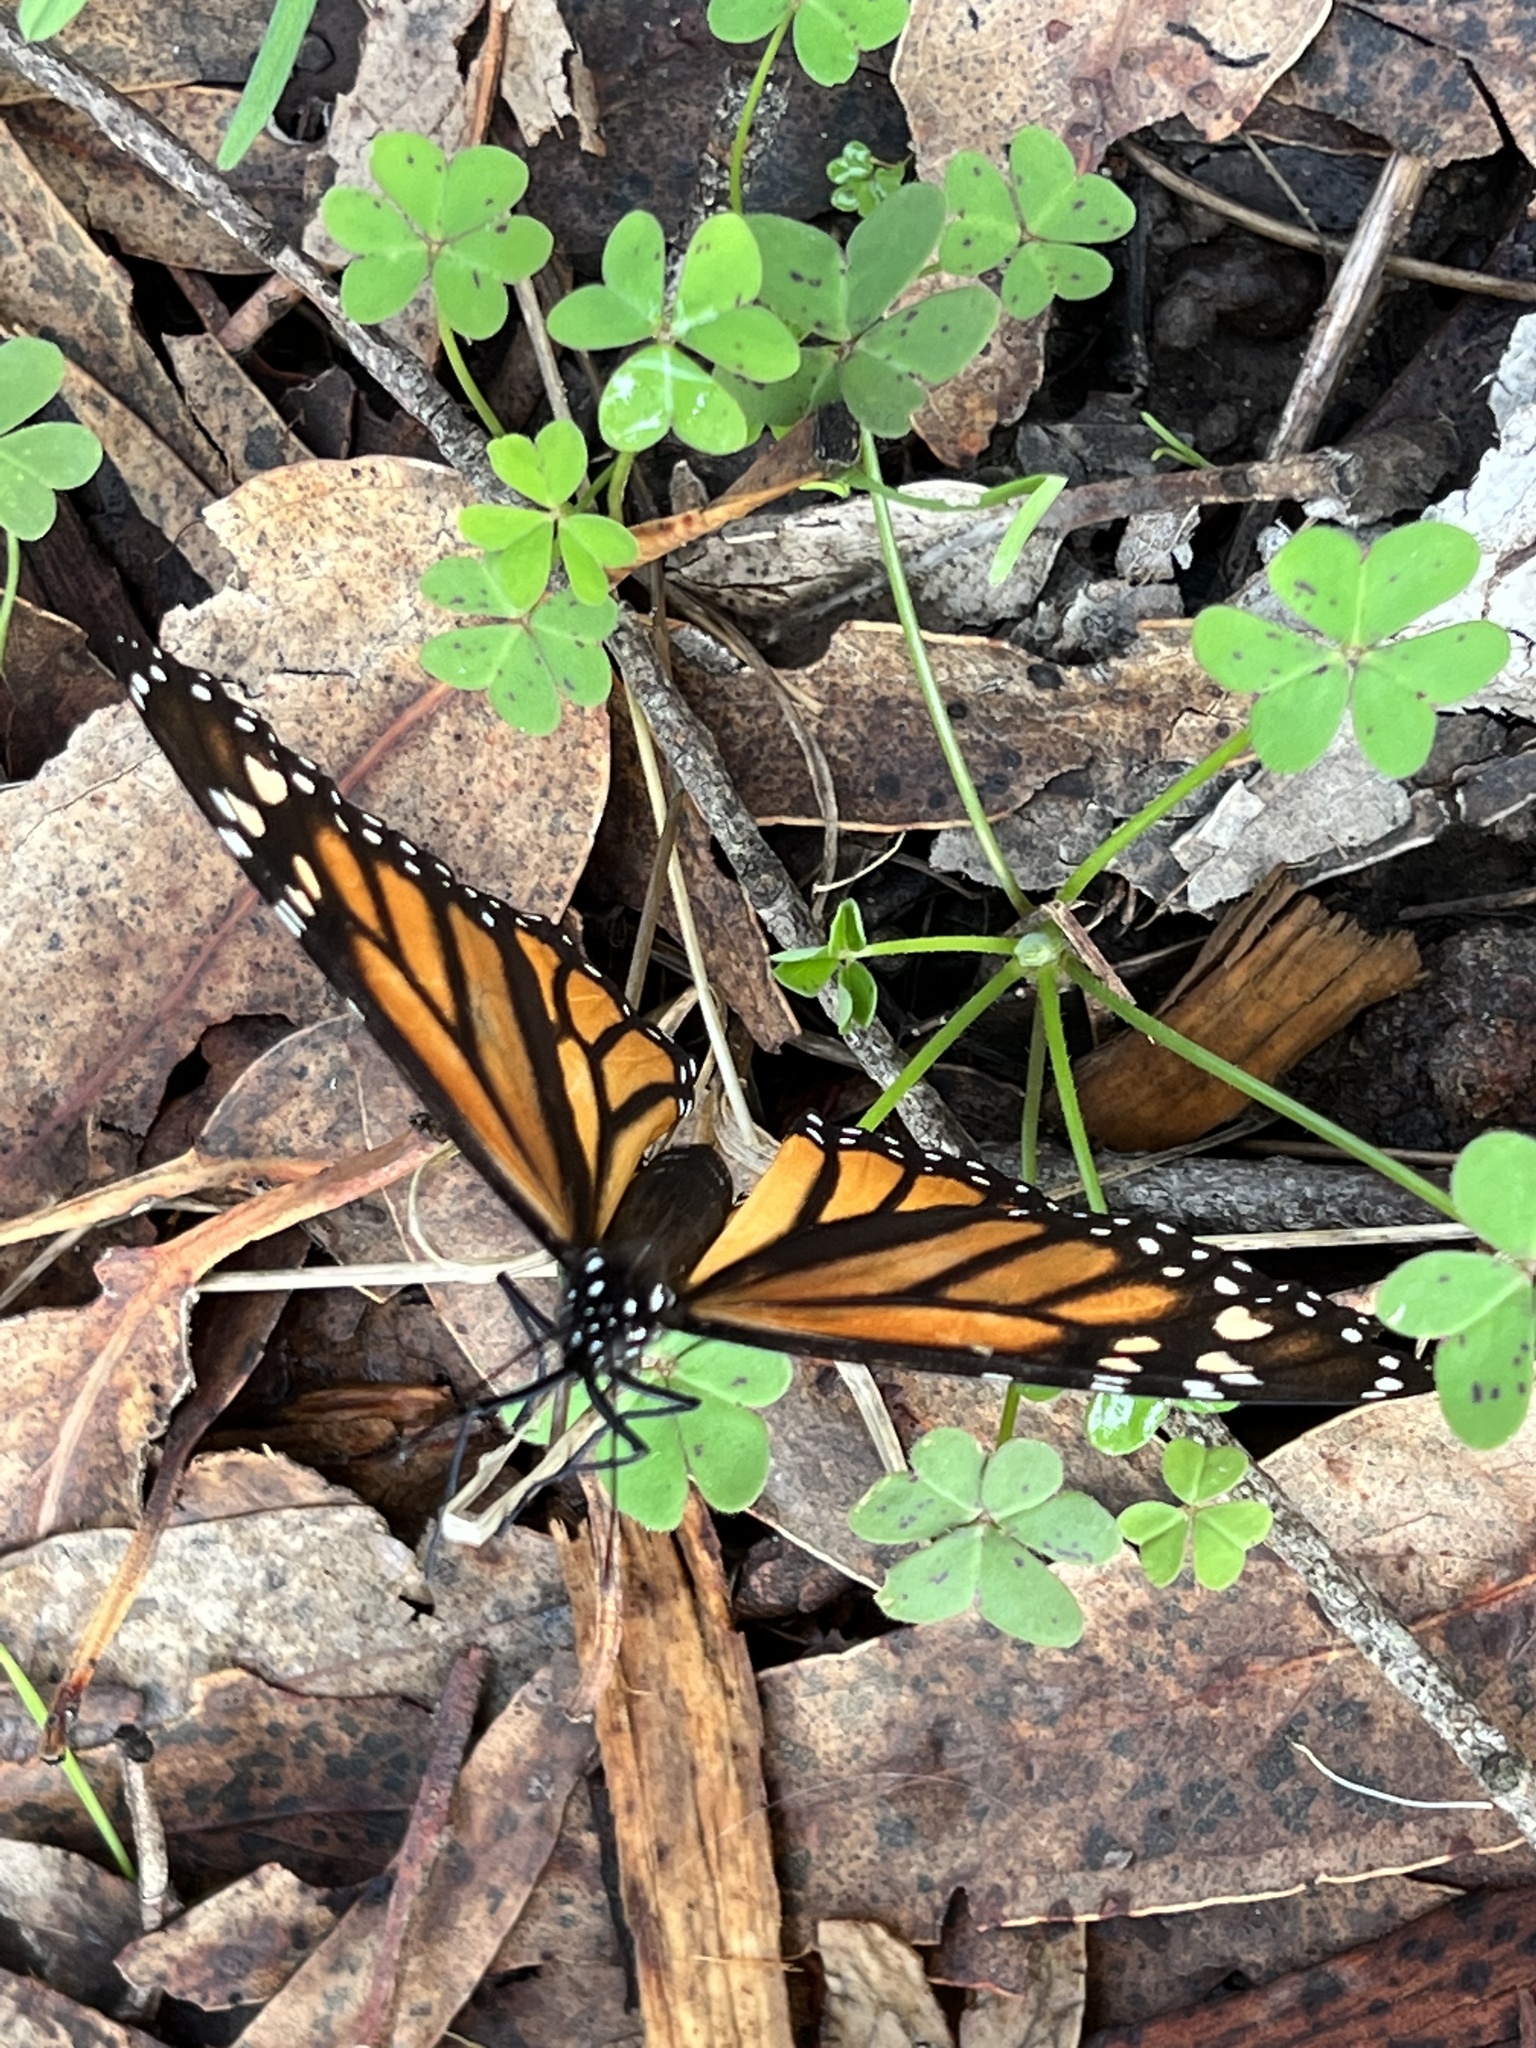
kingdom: Animalia
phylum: Arthropoda
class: Insecta
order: Lepidoptera
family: Nymphalidae
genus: Danaus
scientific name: Danaus plexippus
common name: Monarch
